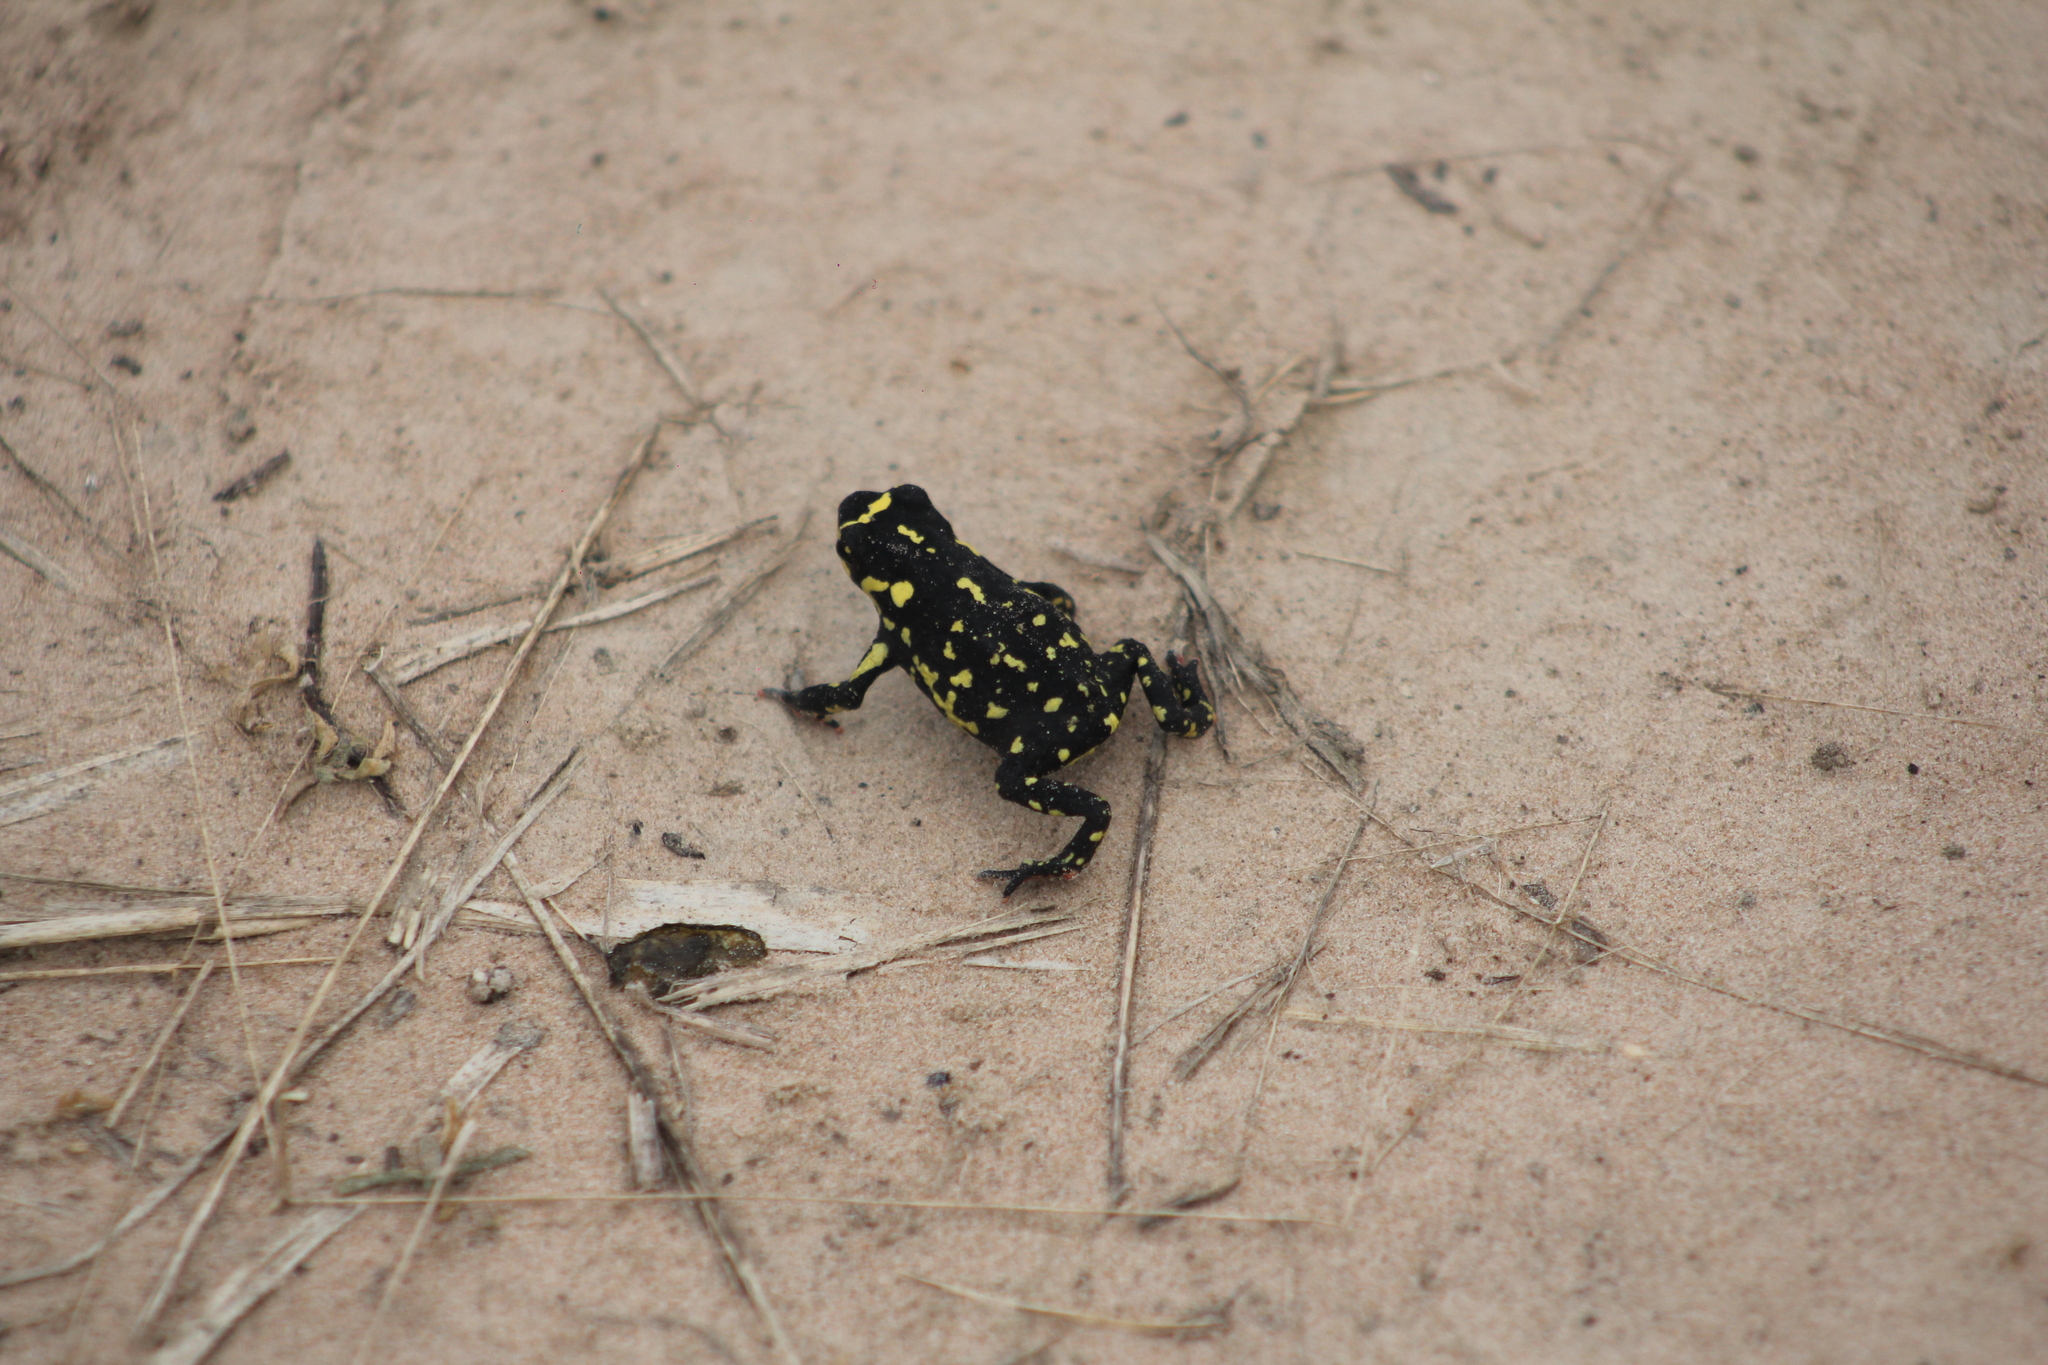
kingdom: Animalia
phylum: Chordata
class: Amphibia
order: Anura
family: Bufonidae
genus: Melanophryniscus
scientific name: Melanophryniscus klappenbachi
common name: Klappenbach’s red-bellied toad
